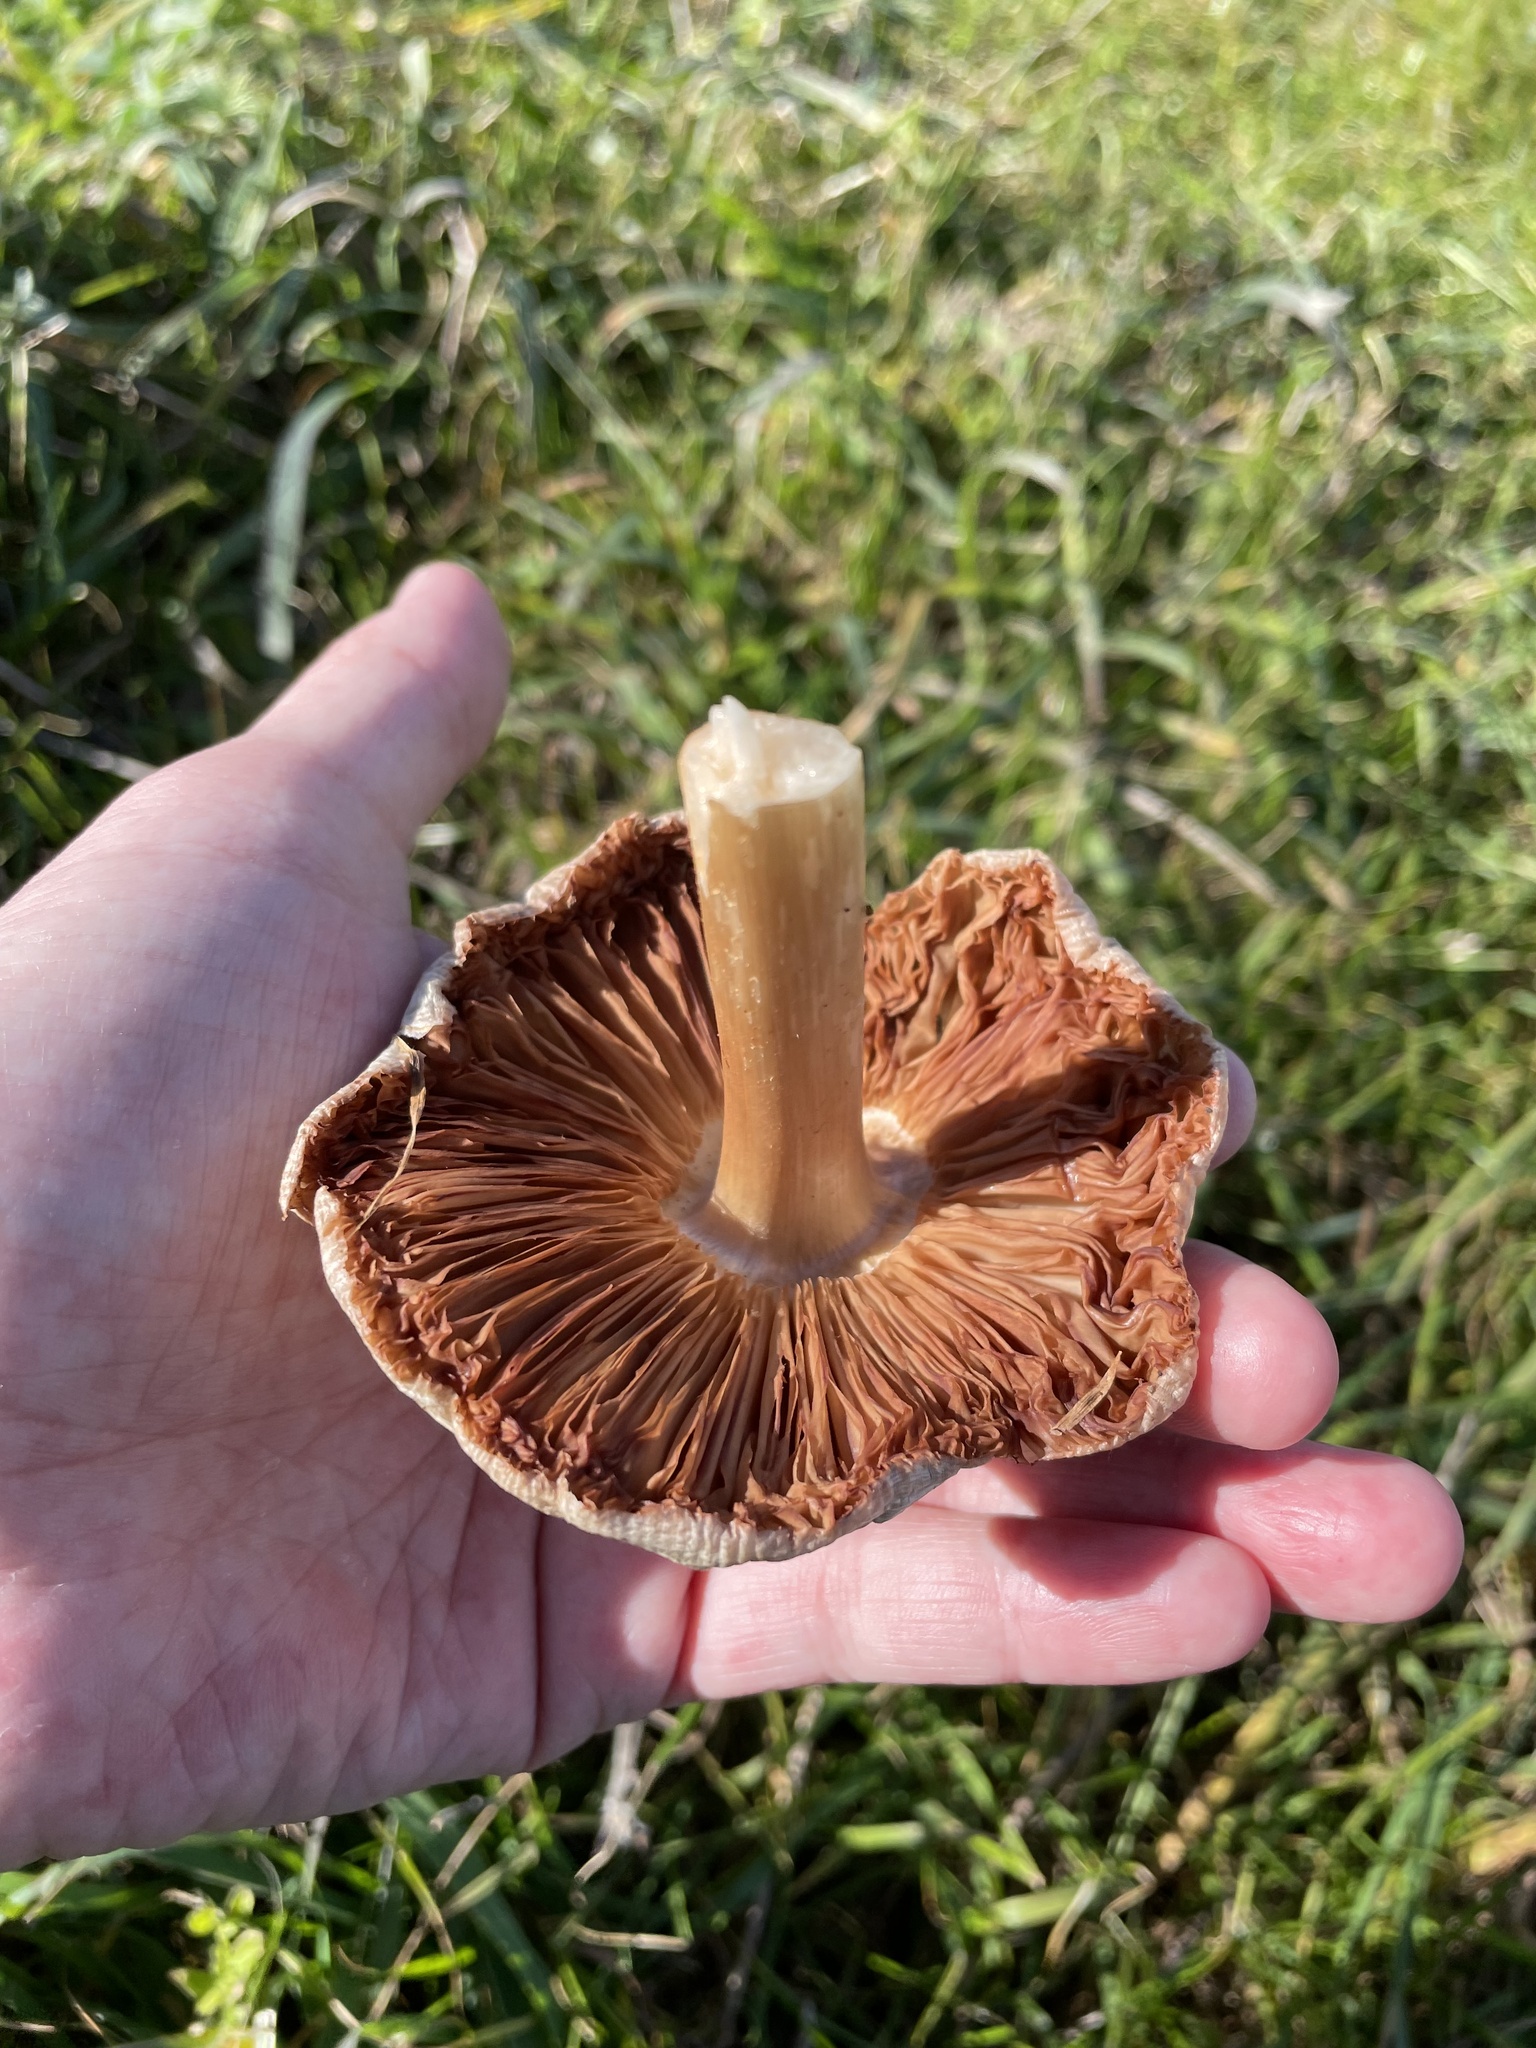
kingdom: Fungi
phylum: Basidiomycota
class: Agaricomycetes
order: Agaricales
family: Pluteaceae
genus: Volvopluteus
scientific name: Volvopluteus gloiocephalus
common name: Stubble rosegill
